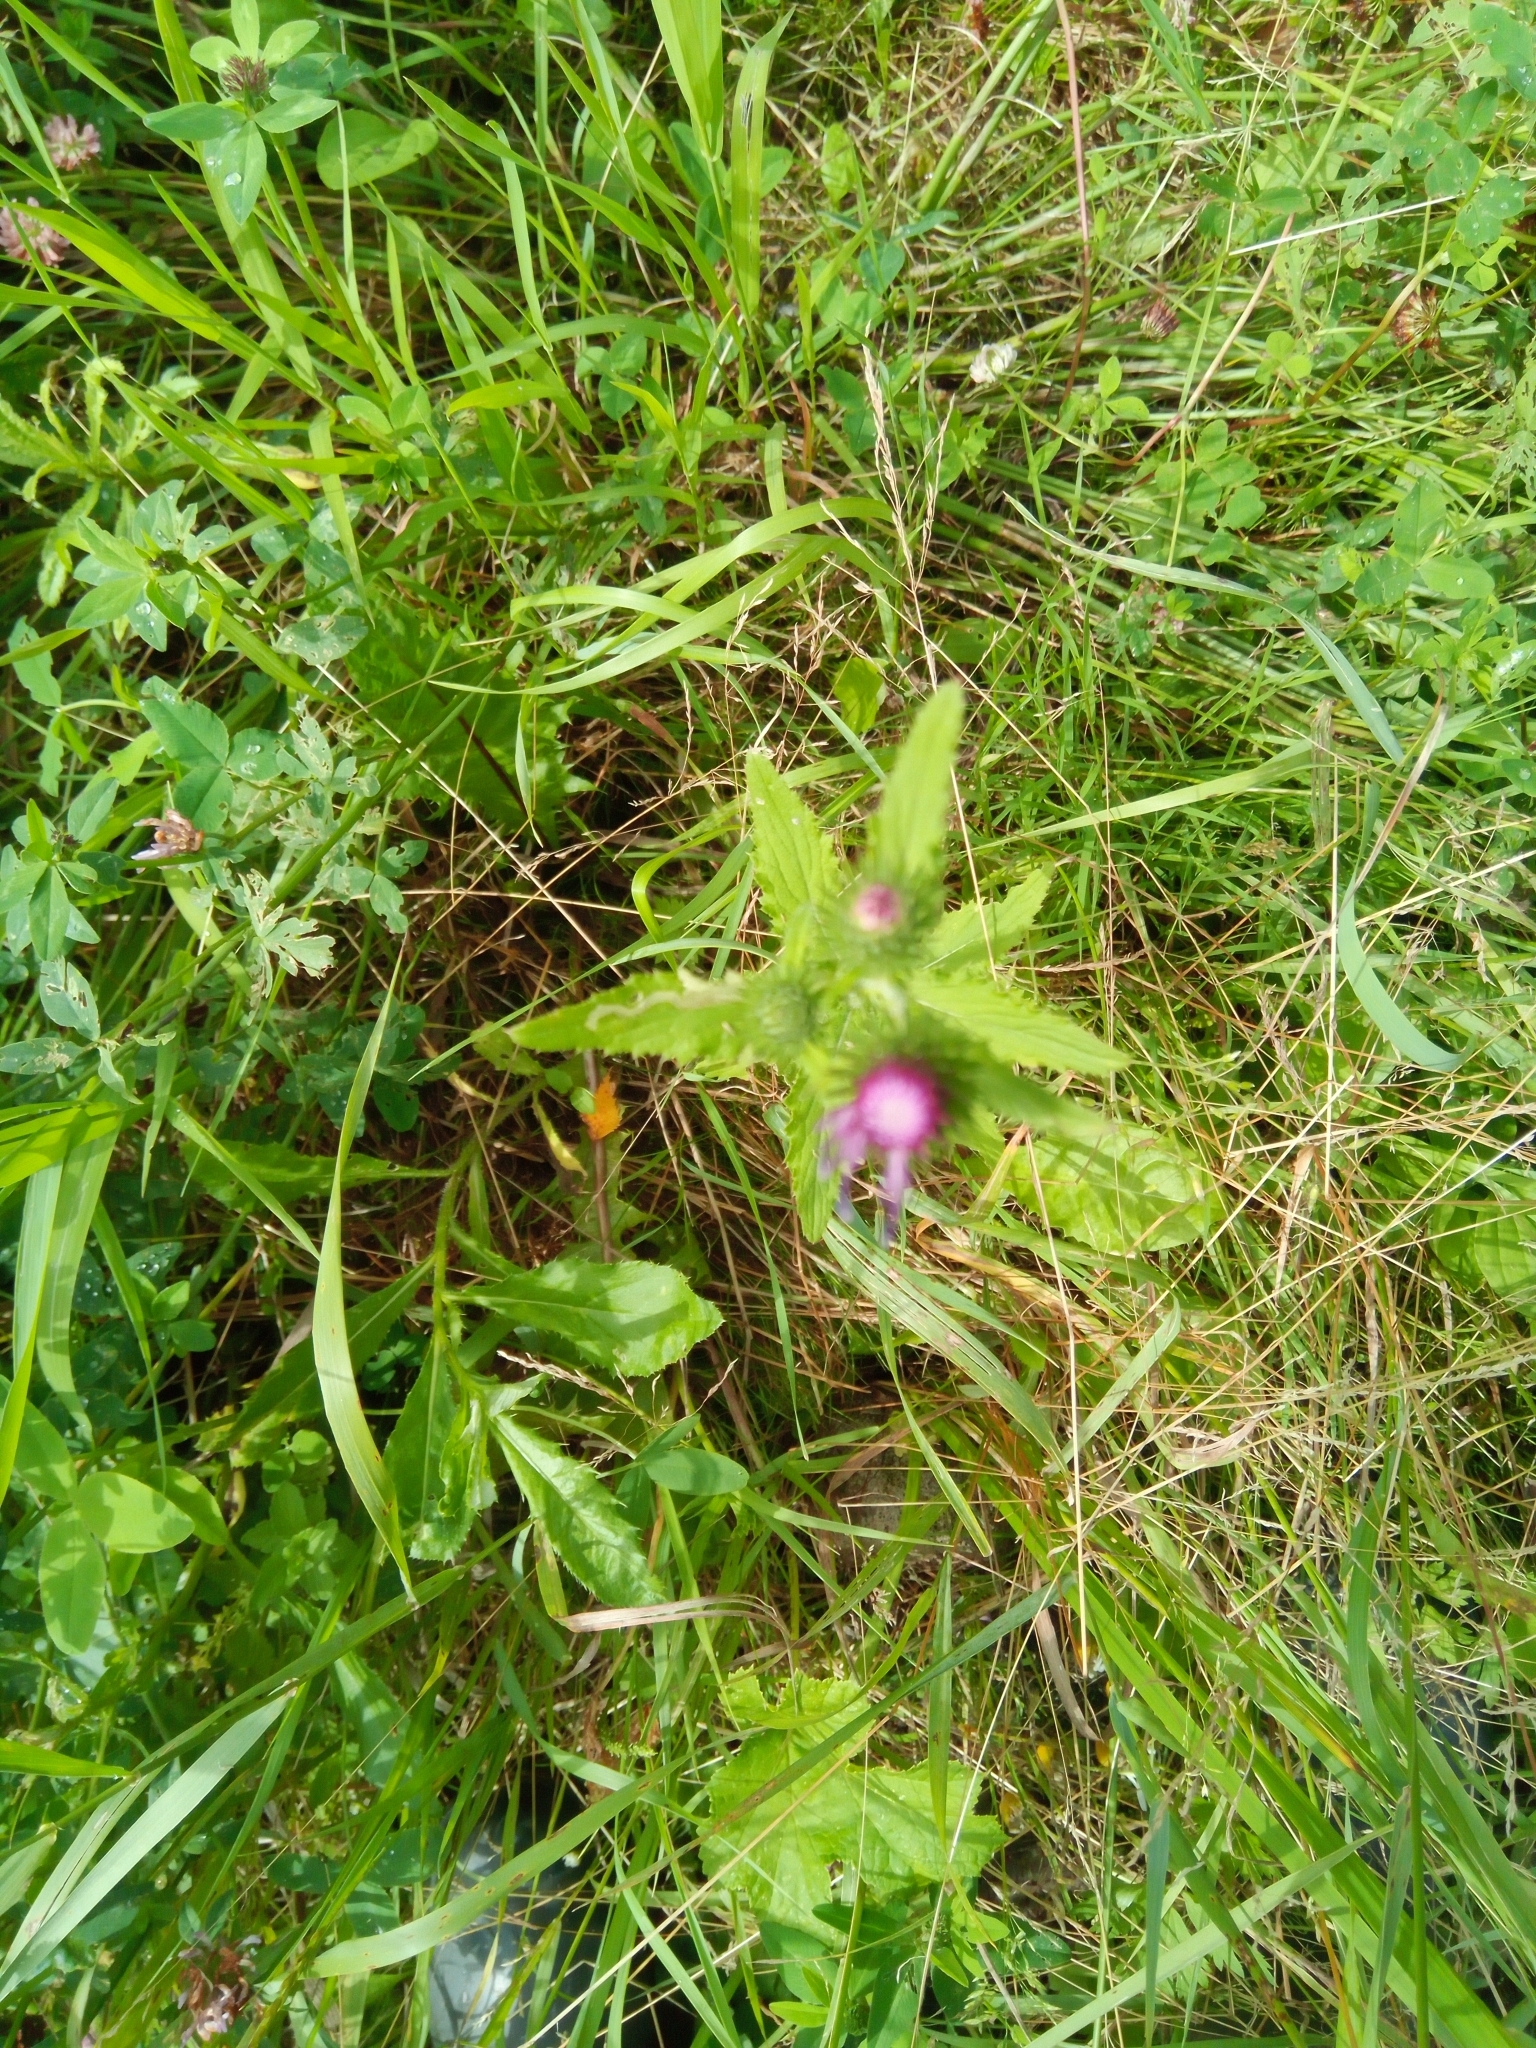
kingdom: Plantae
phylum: Tracheophyta
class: Magnoliopsida
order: Asterales
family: Asteraceae
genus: Carduus
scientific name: Carduus crispus
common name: Welted thistle
